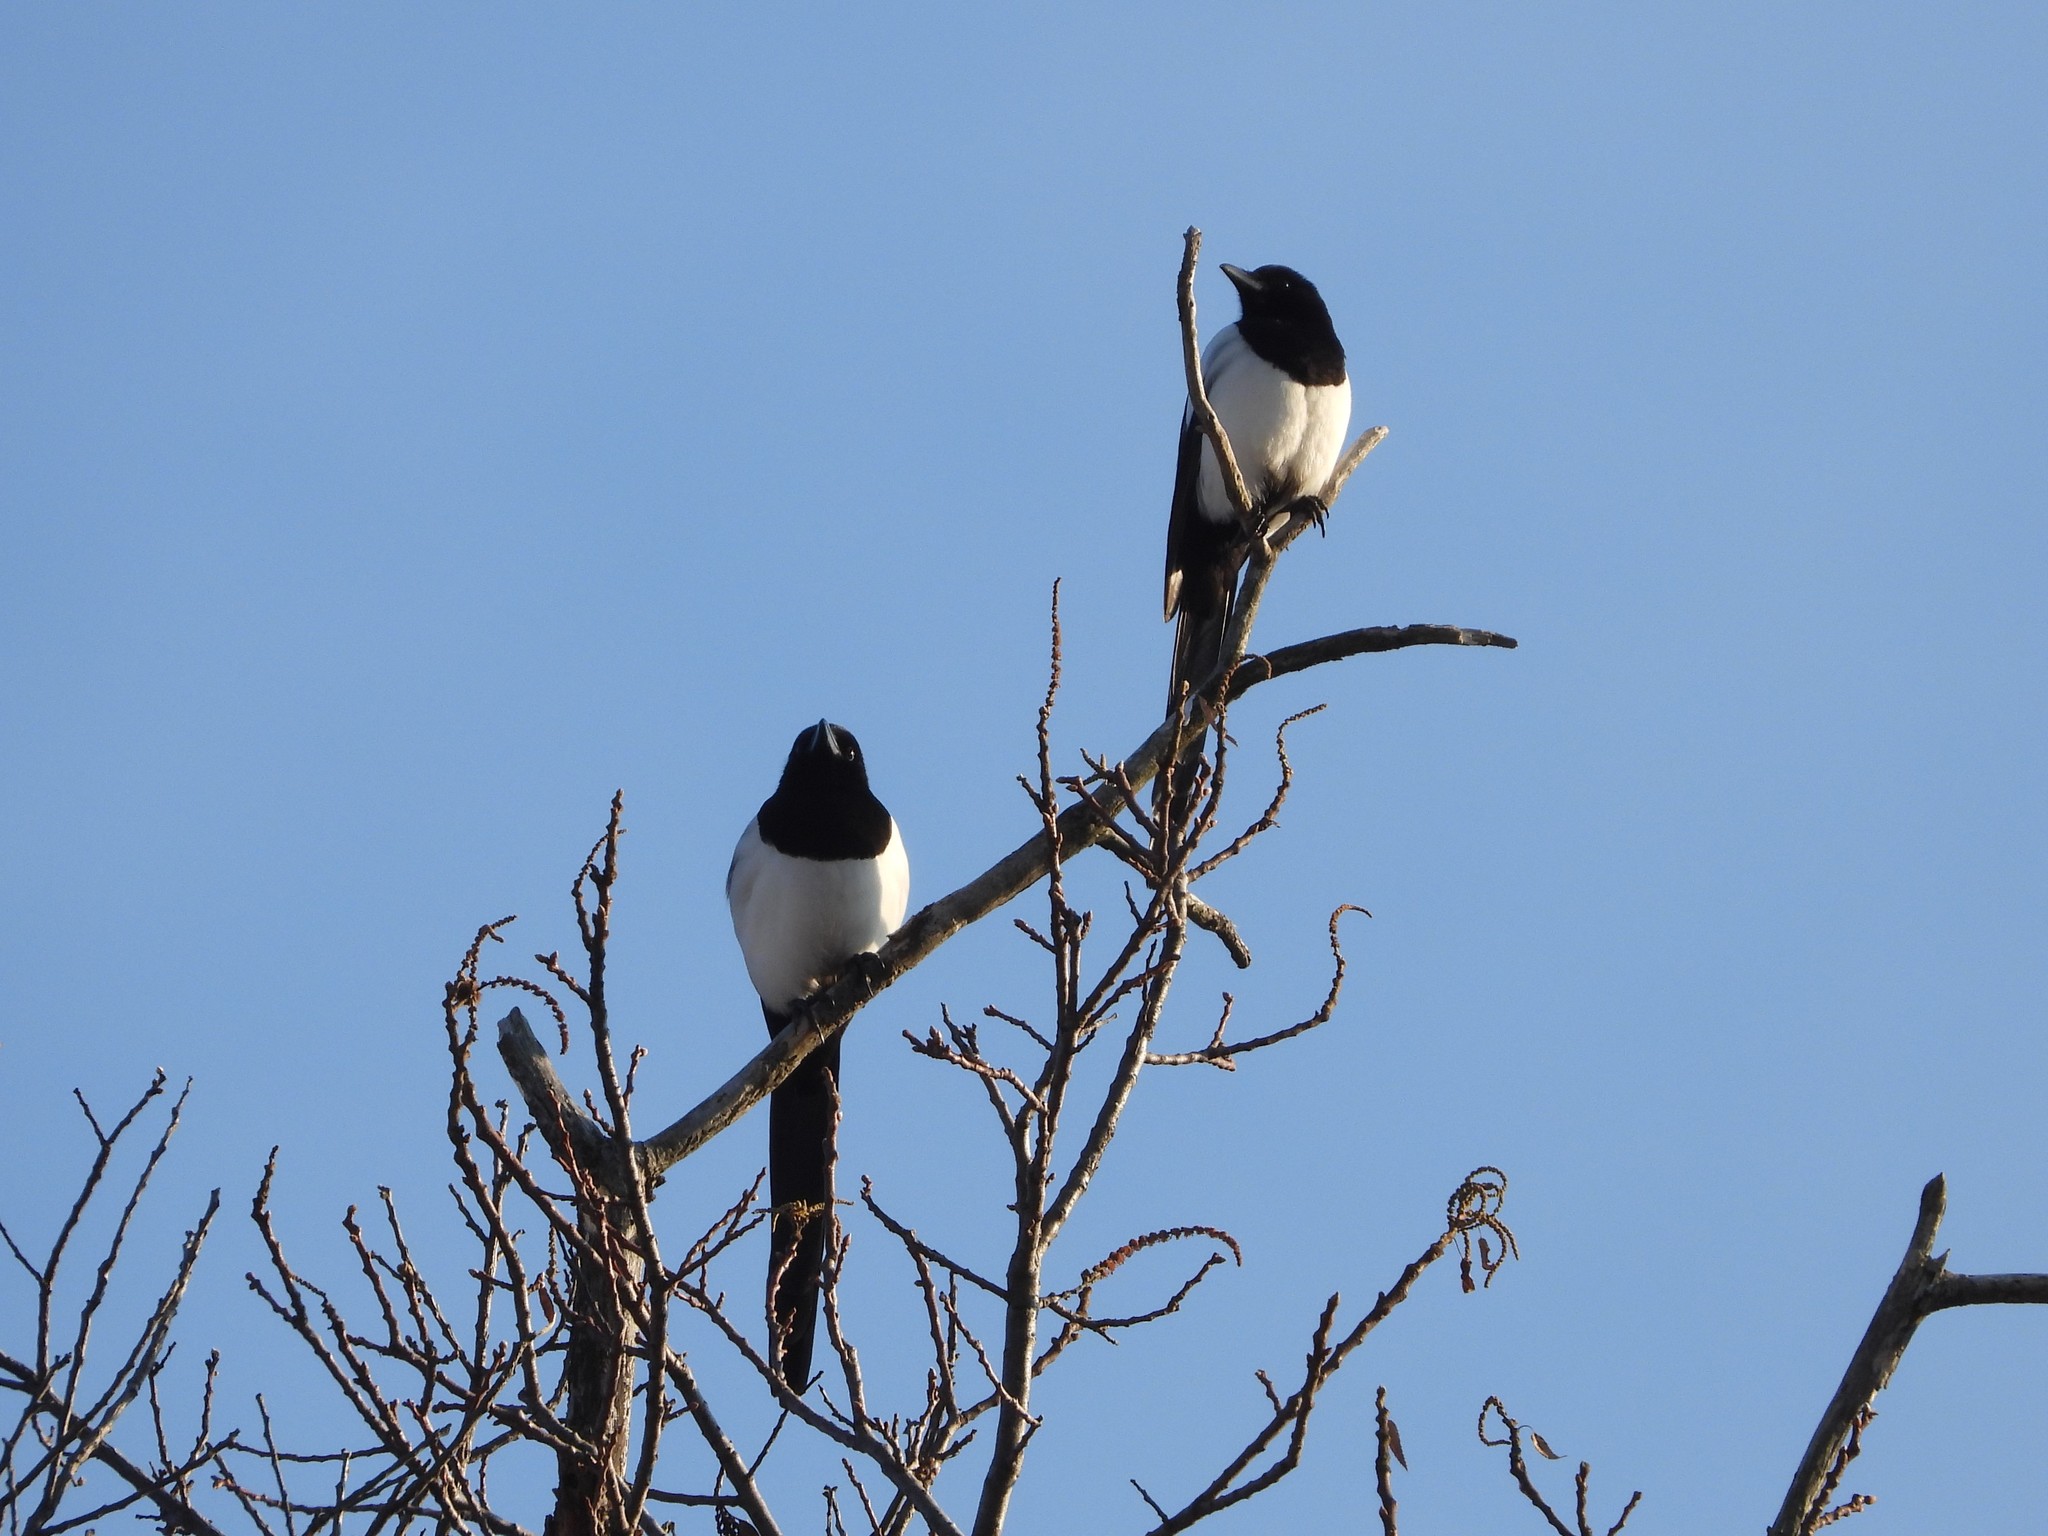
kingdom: Animalia
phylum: Chordata
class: Aves
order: Passeriformes
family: Corvidae
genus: Pica
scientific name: Pica pica
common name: Eurasian magpie
